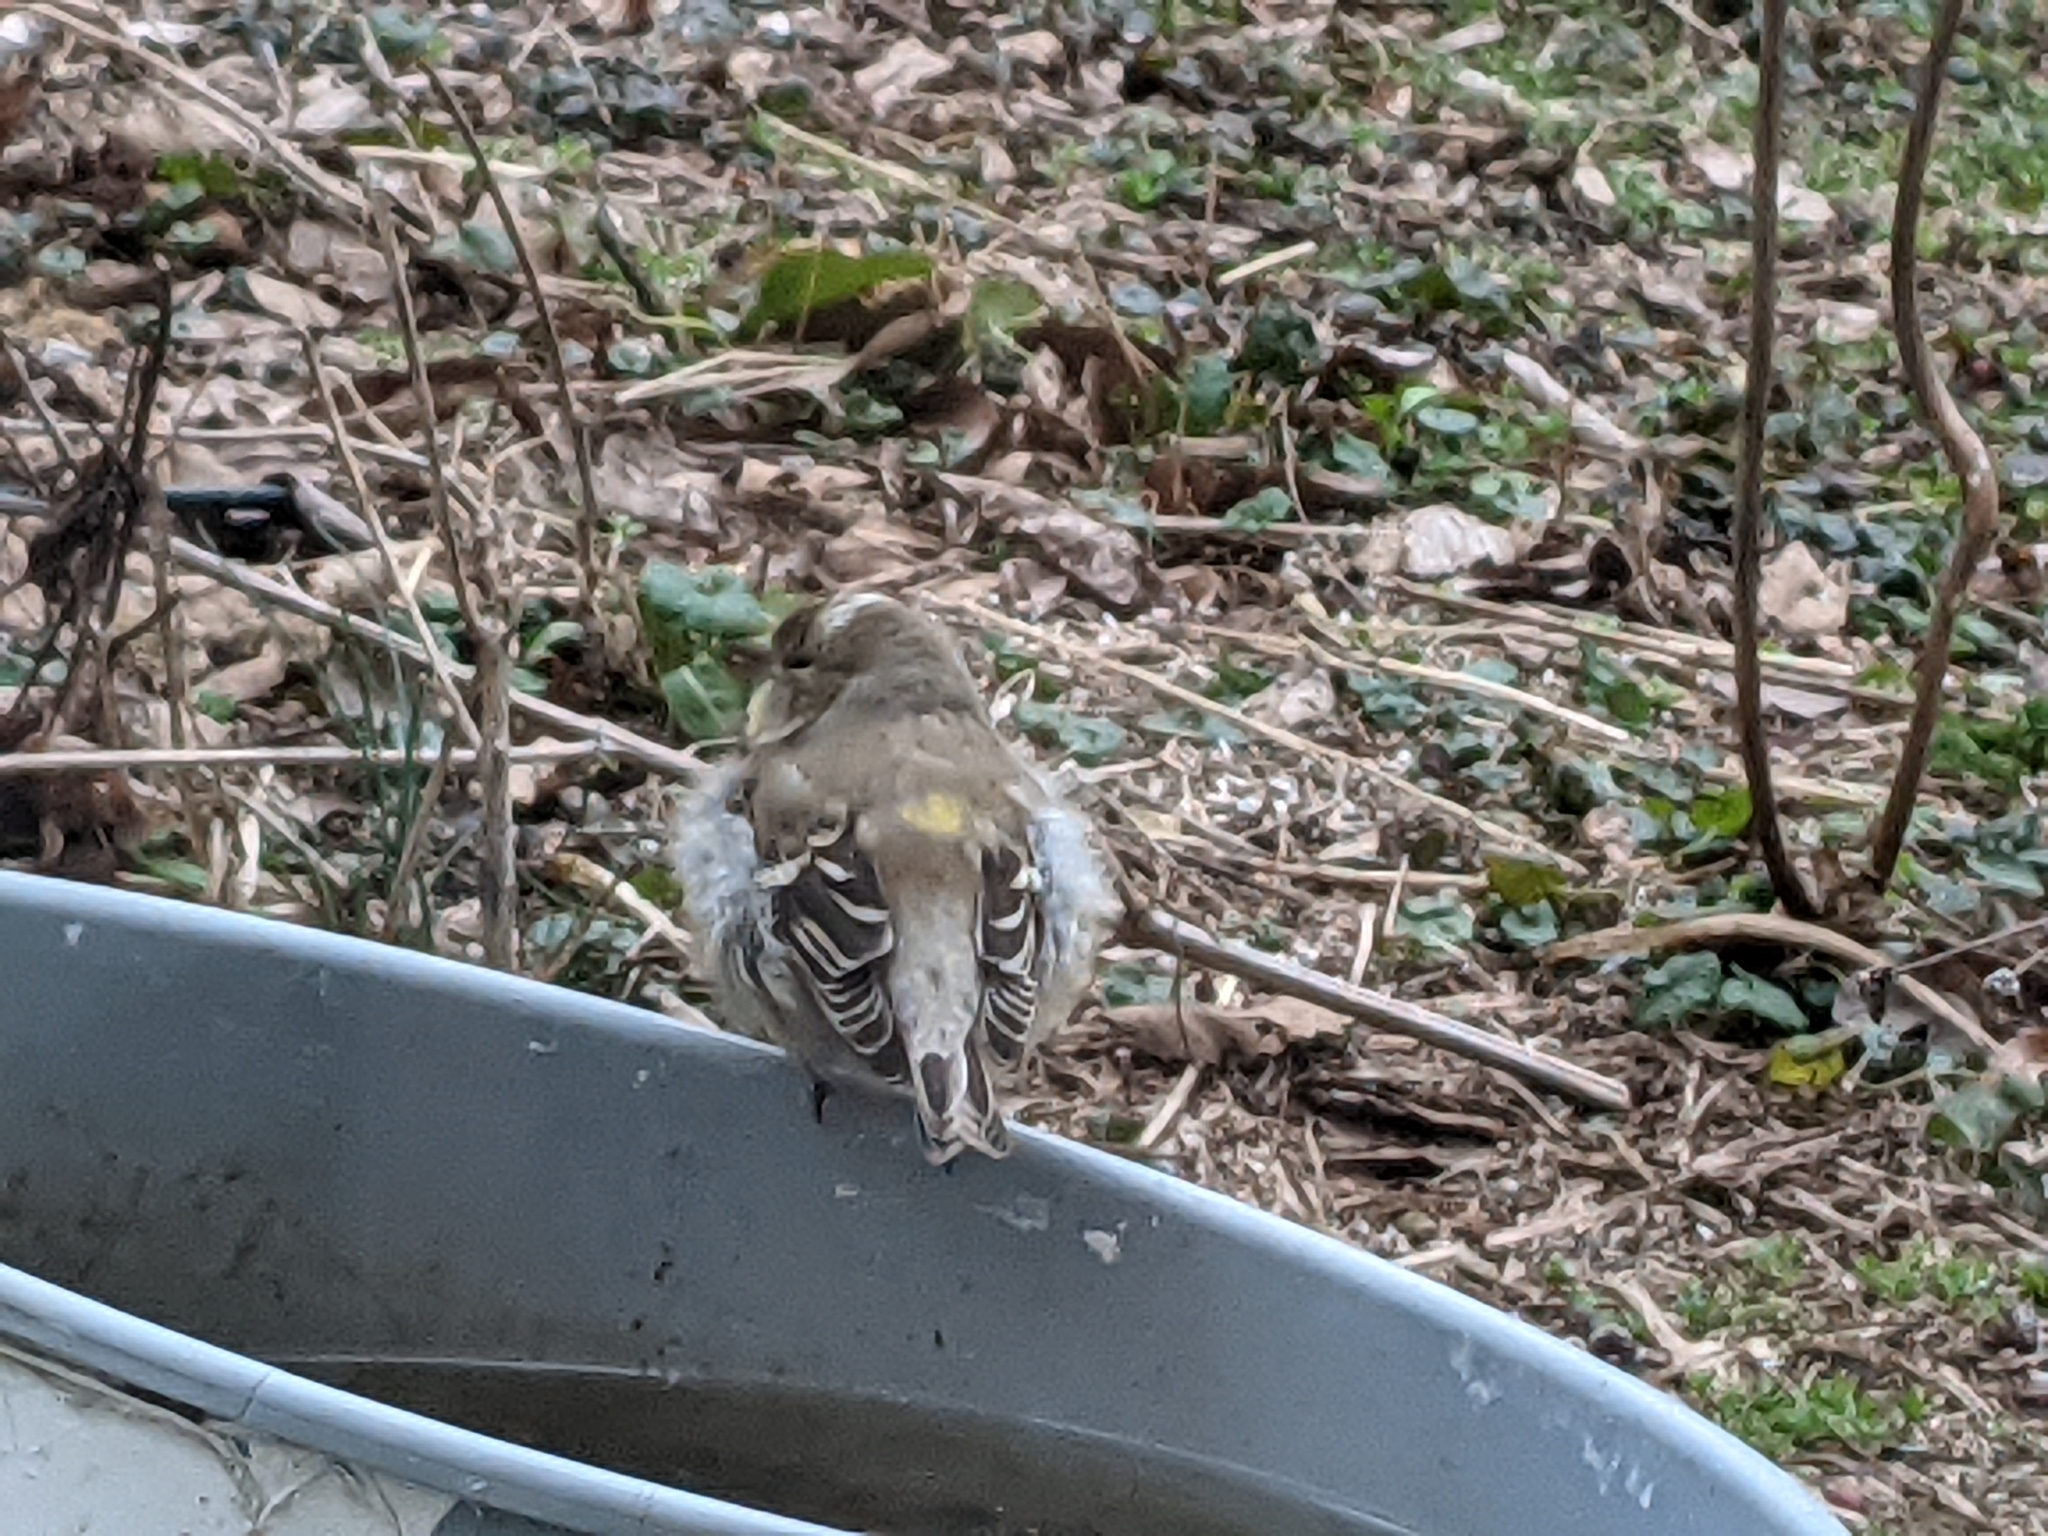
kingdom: Animalia
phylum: Chordata
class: Aves
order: Passeriformes
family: Fringillidae
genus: Spinus
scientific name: Spinus tristis
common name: American goldfinch
